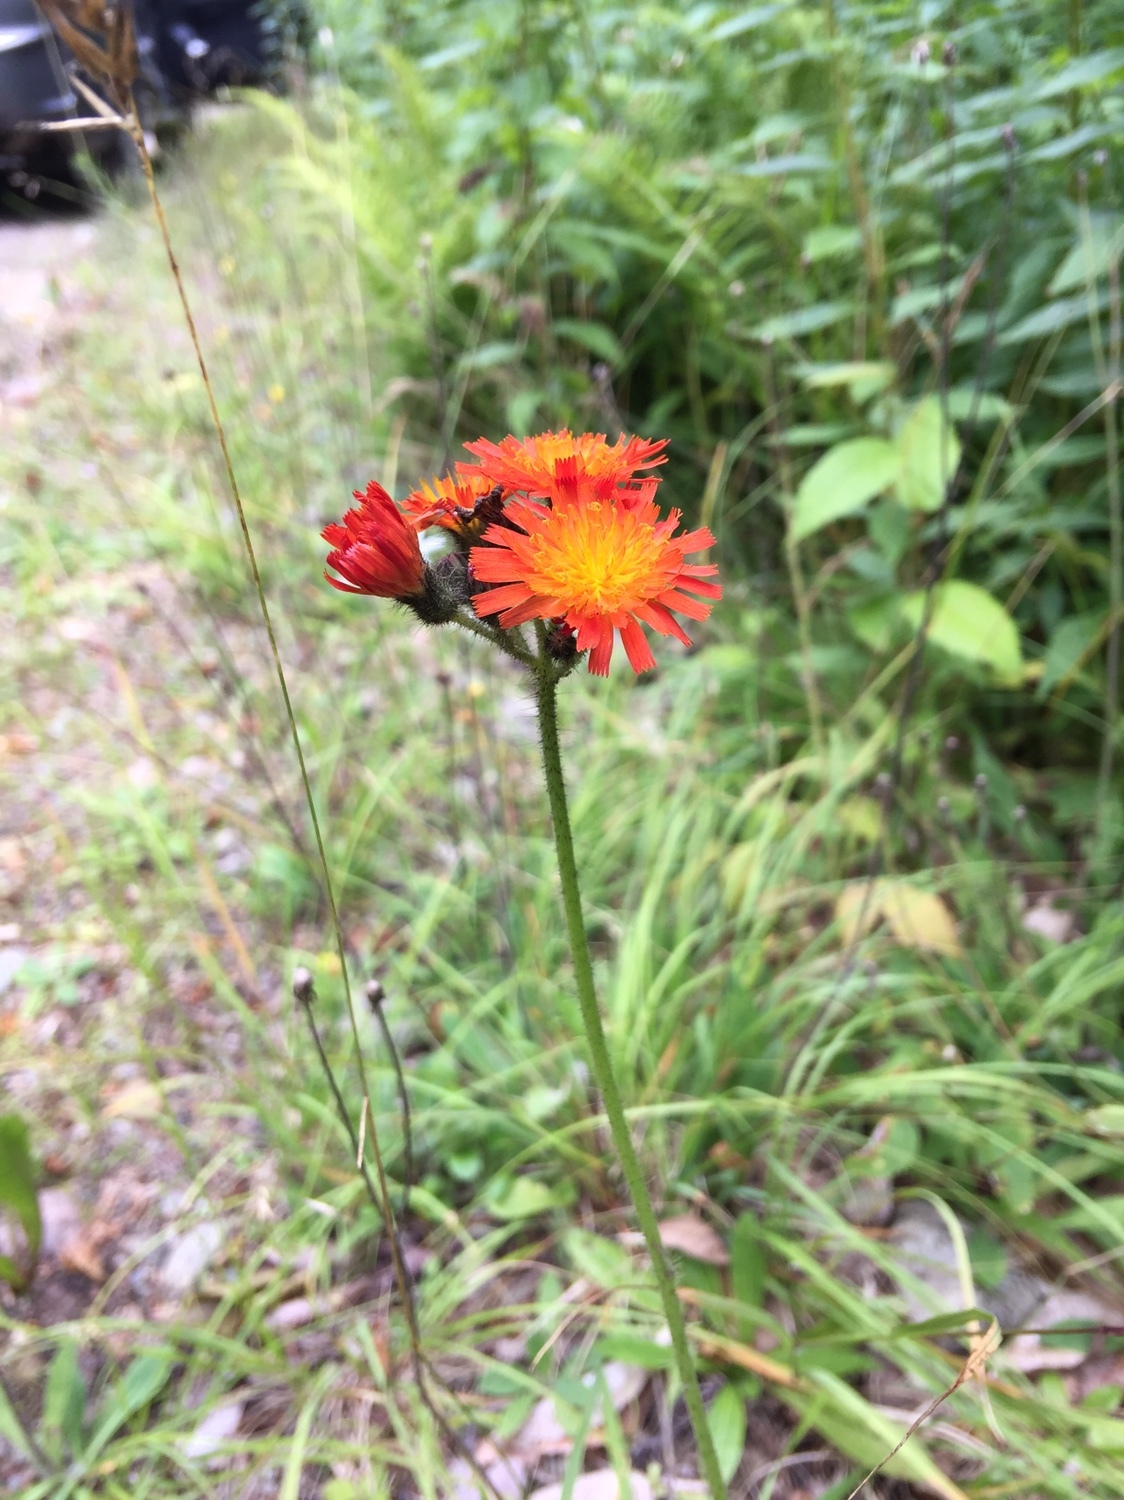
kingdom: Plantae
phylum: Tracheophyta
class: Magnoliopsida
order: Asterales
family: Asteraceae
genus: Pilosella
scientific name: Pilosella aurantiaca
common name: Fox-and-cubs
